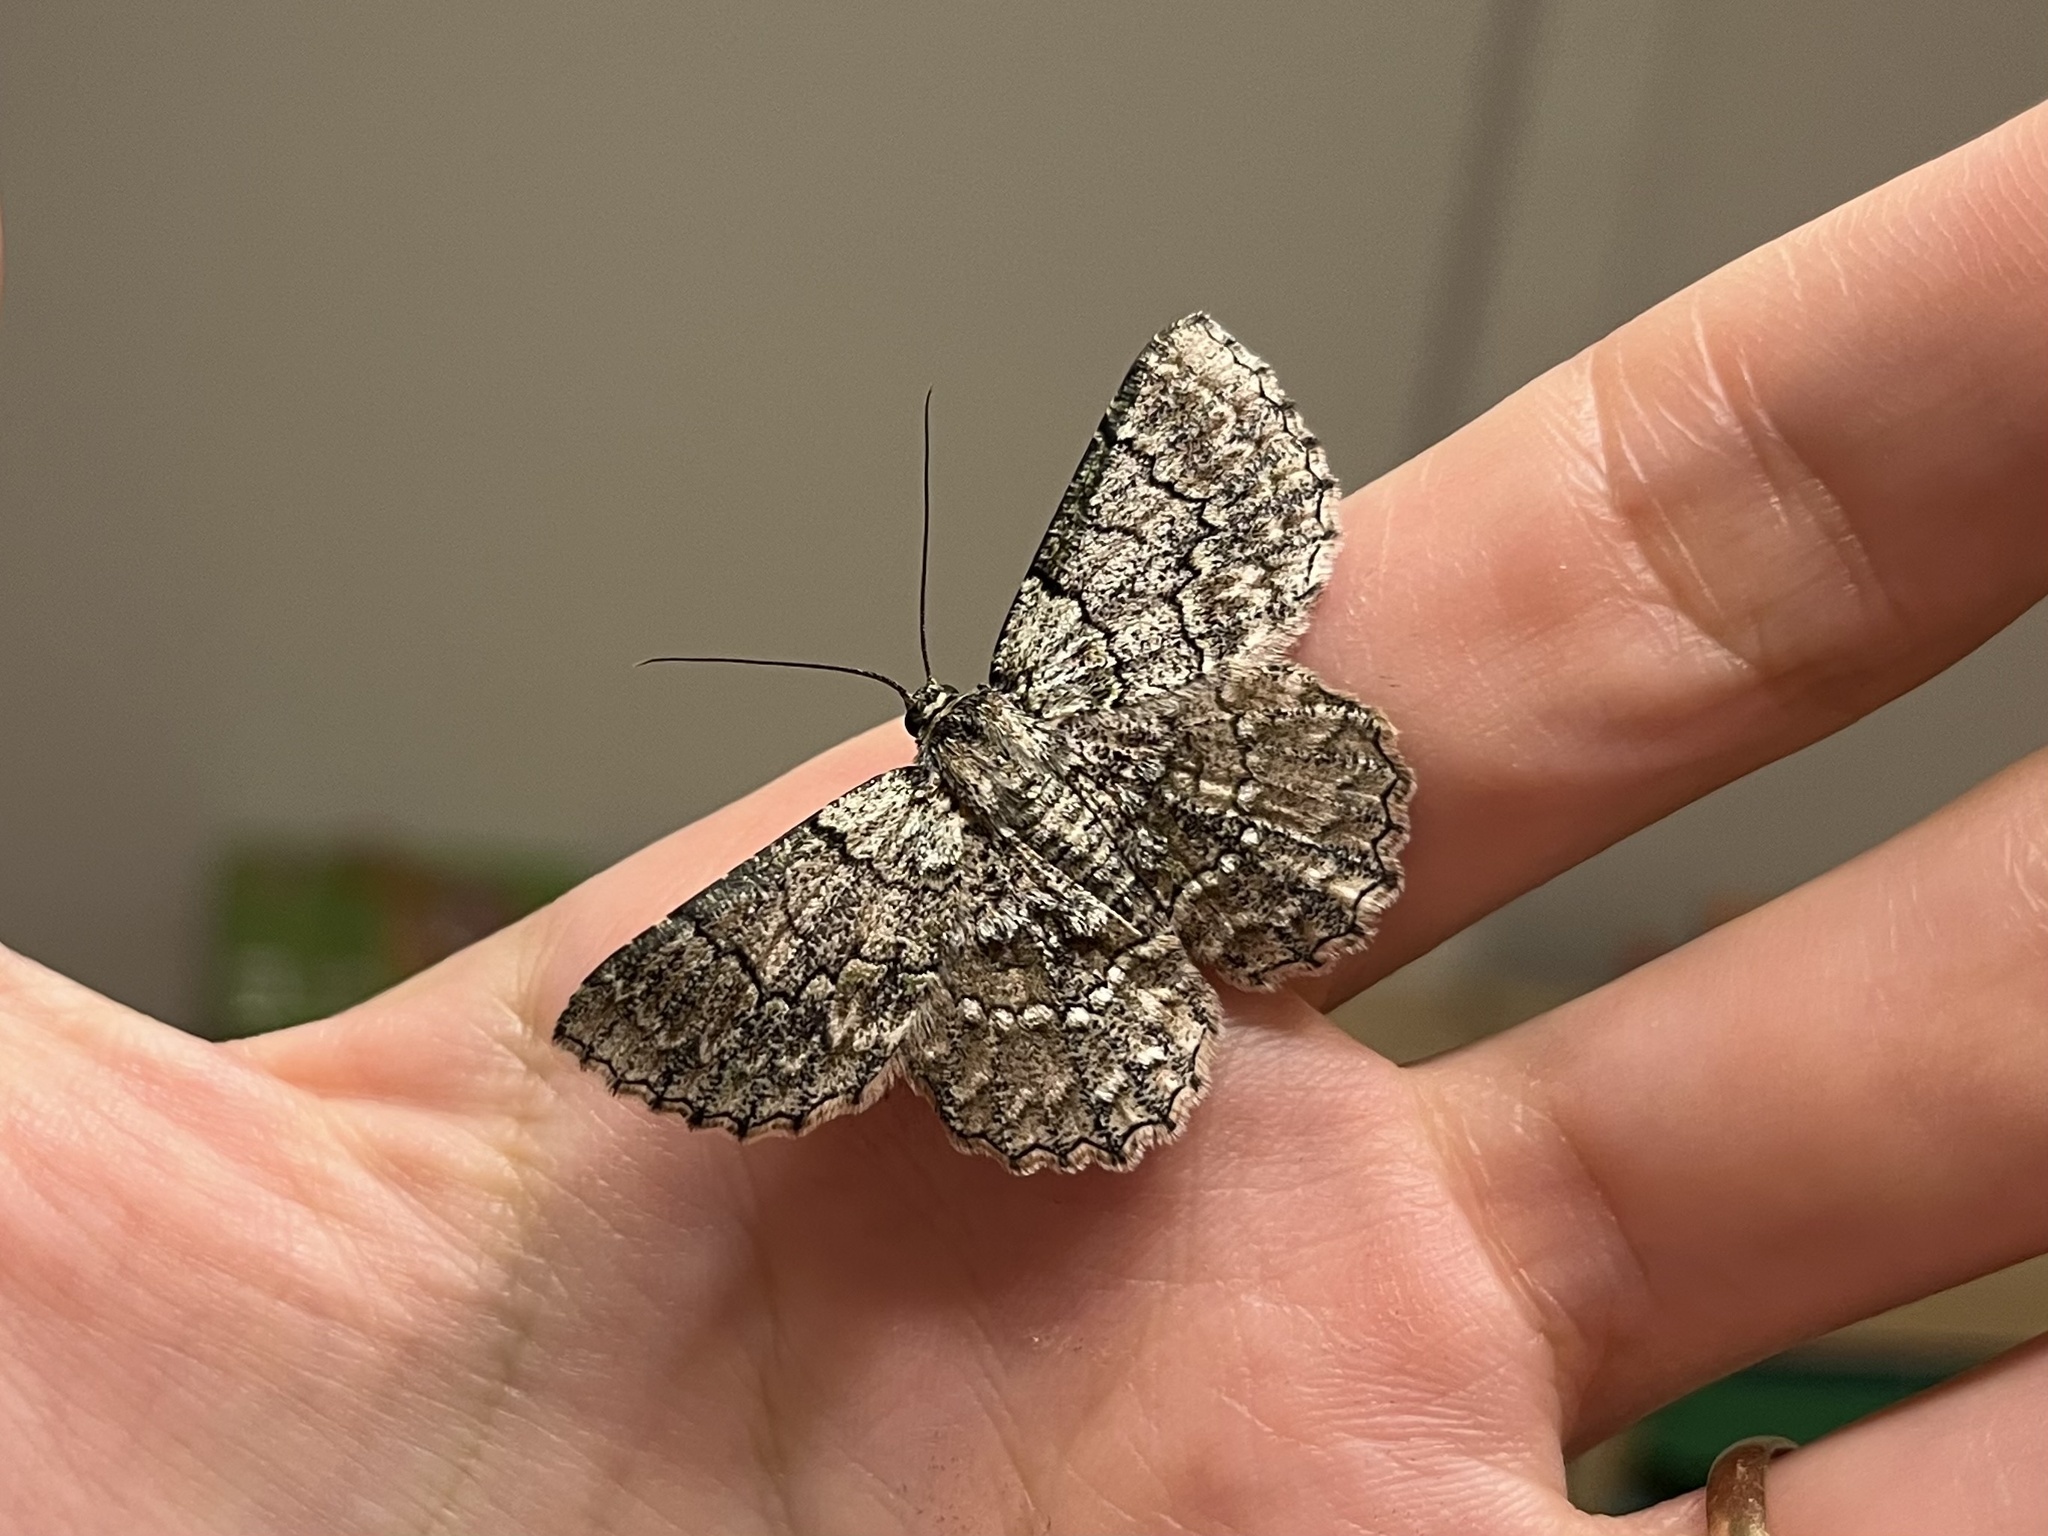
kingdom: Animalia
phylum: Arthropoda
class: Insecta
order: Lepidoptera
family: Geometridae
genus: Hypodoxa
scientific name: Hypodoxa emiliaria
